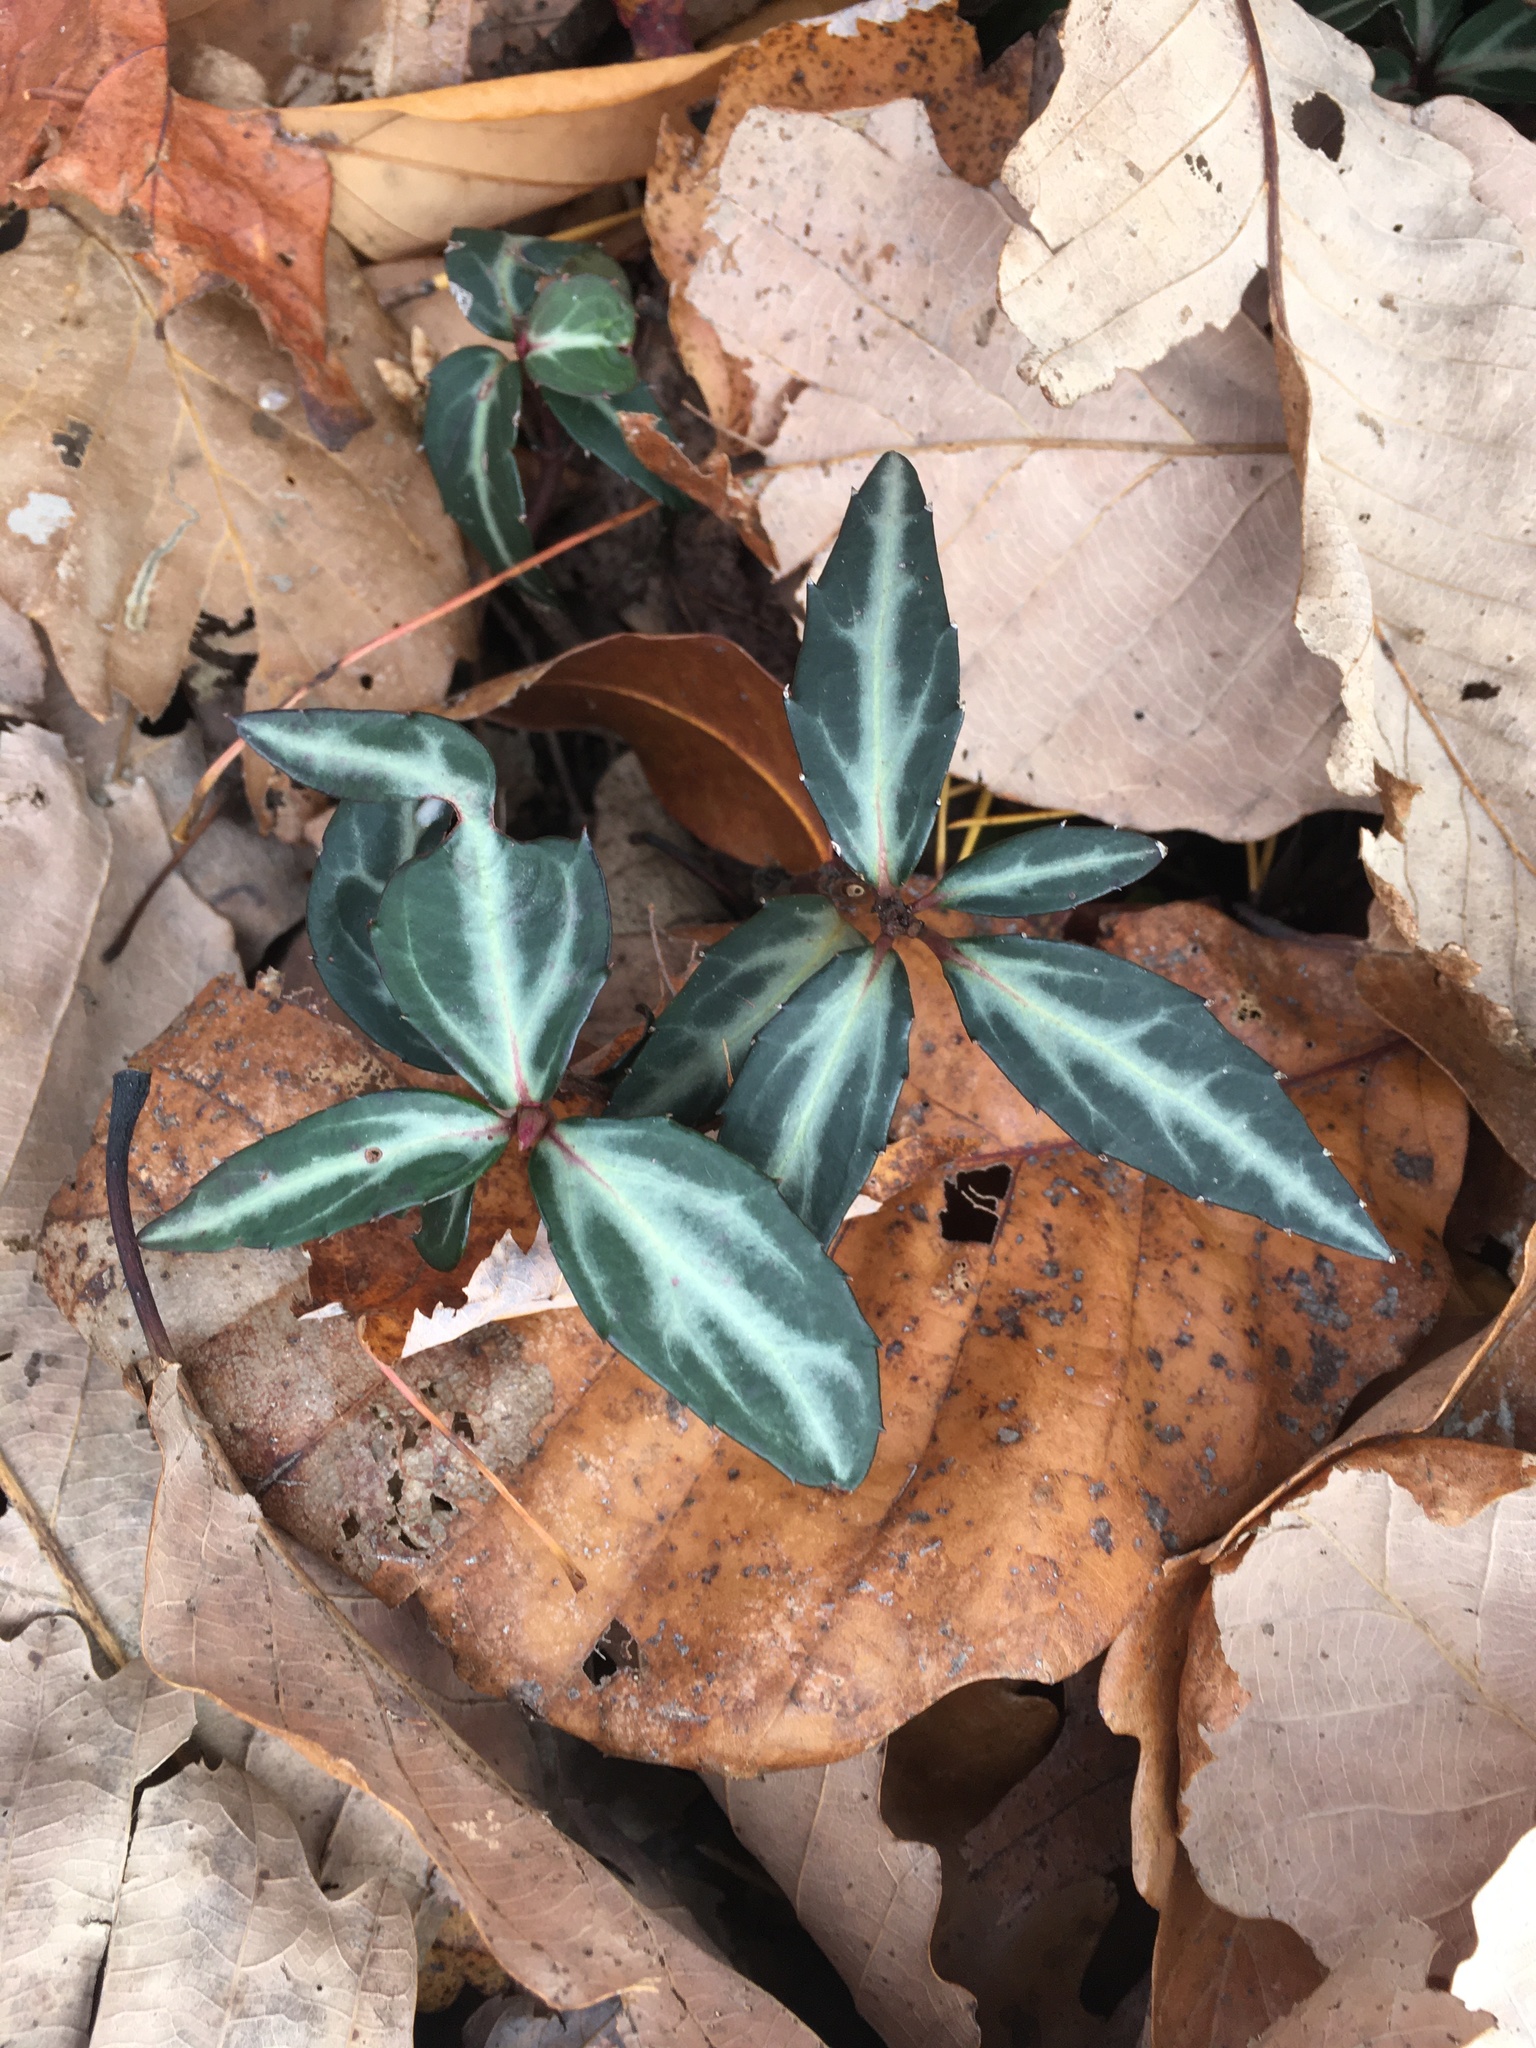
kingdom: Plantae
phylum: Tracheophyta
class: Magnoliopsida
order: Ericales
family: Ericaceae
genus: Chimaphila
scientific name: Chimaphila maculata
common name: Spotted pipsissewa
